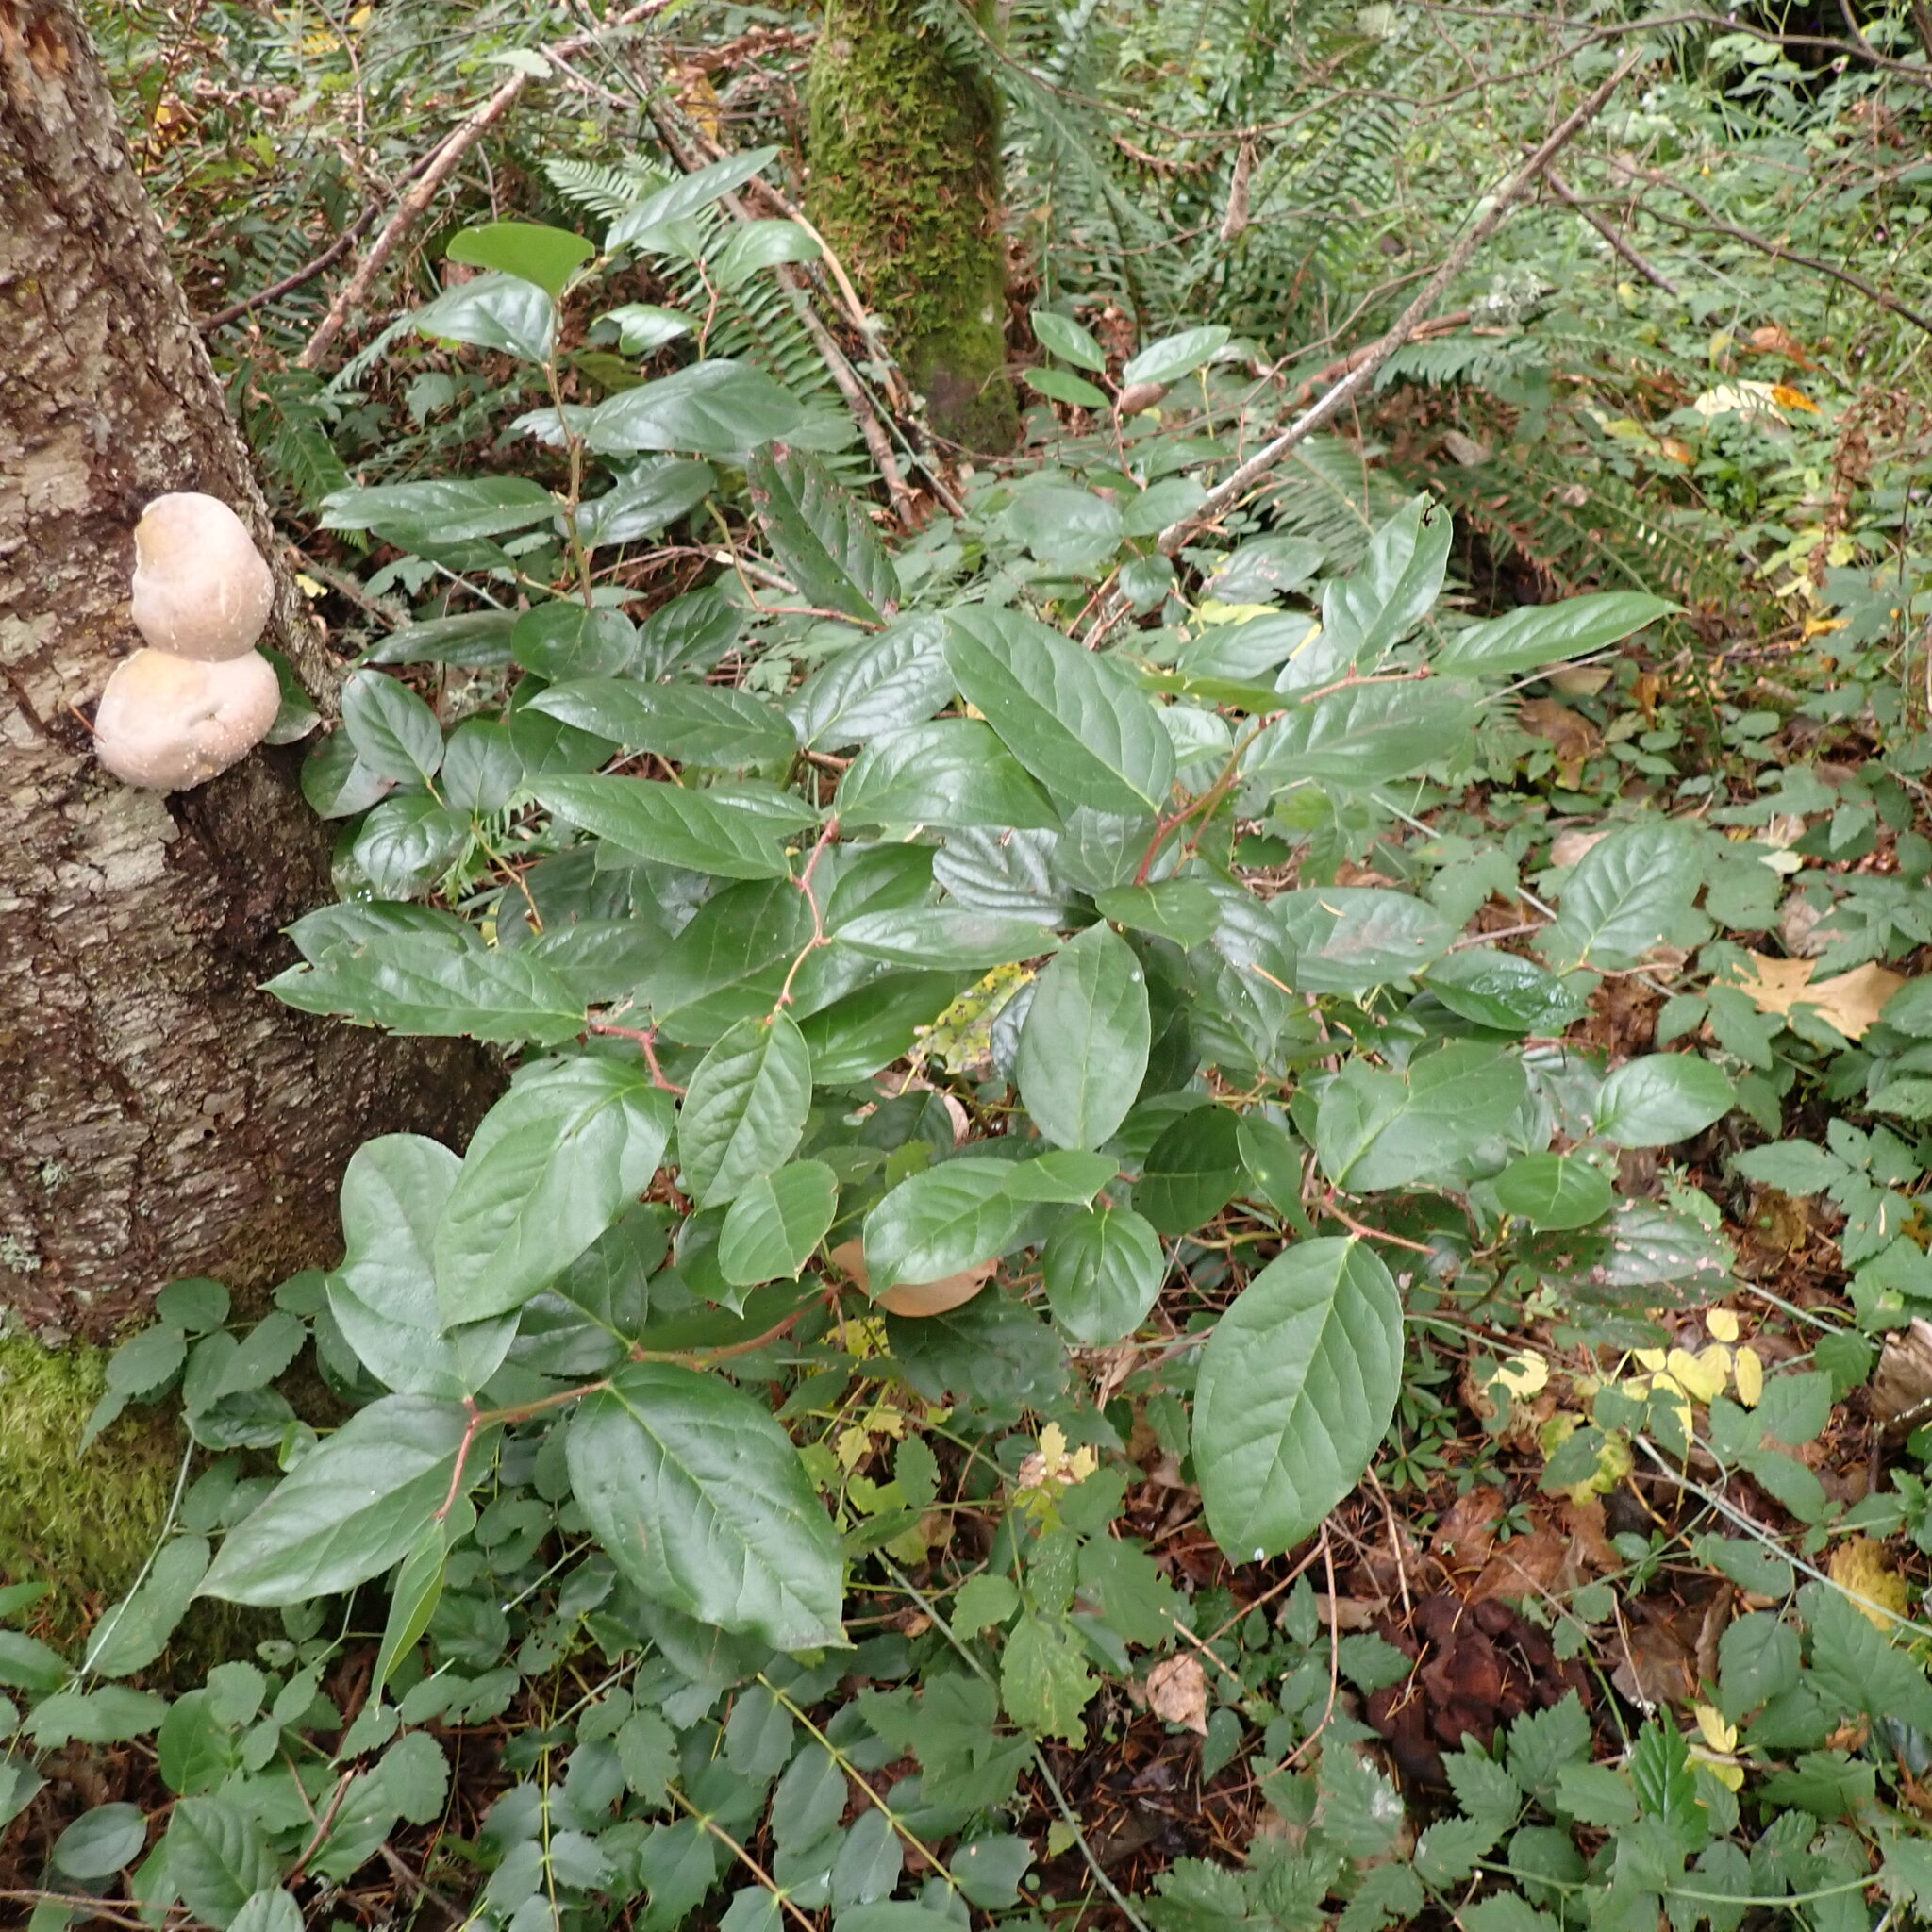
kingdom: Plantae
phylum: Tracheophyta
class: Magnoliopsida
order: Ericales
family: Ericaceae
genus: Gaultheria
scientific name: Gaultheria shallon
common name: Shallon
